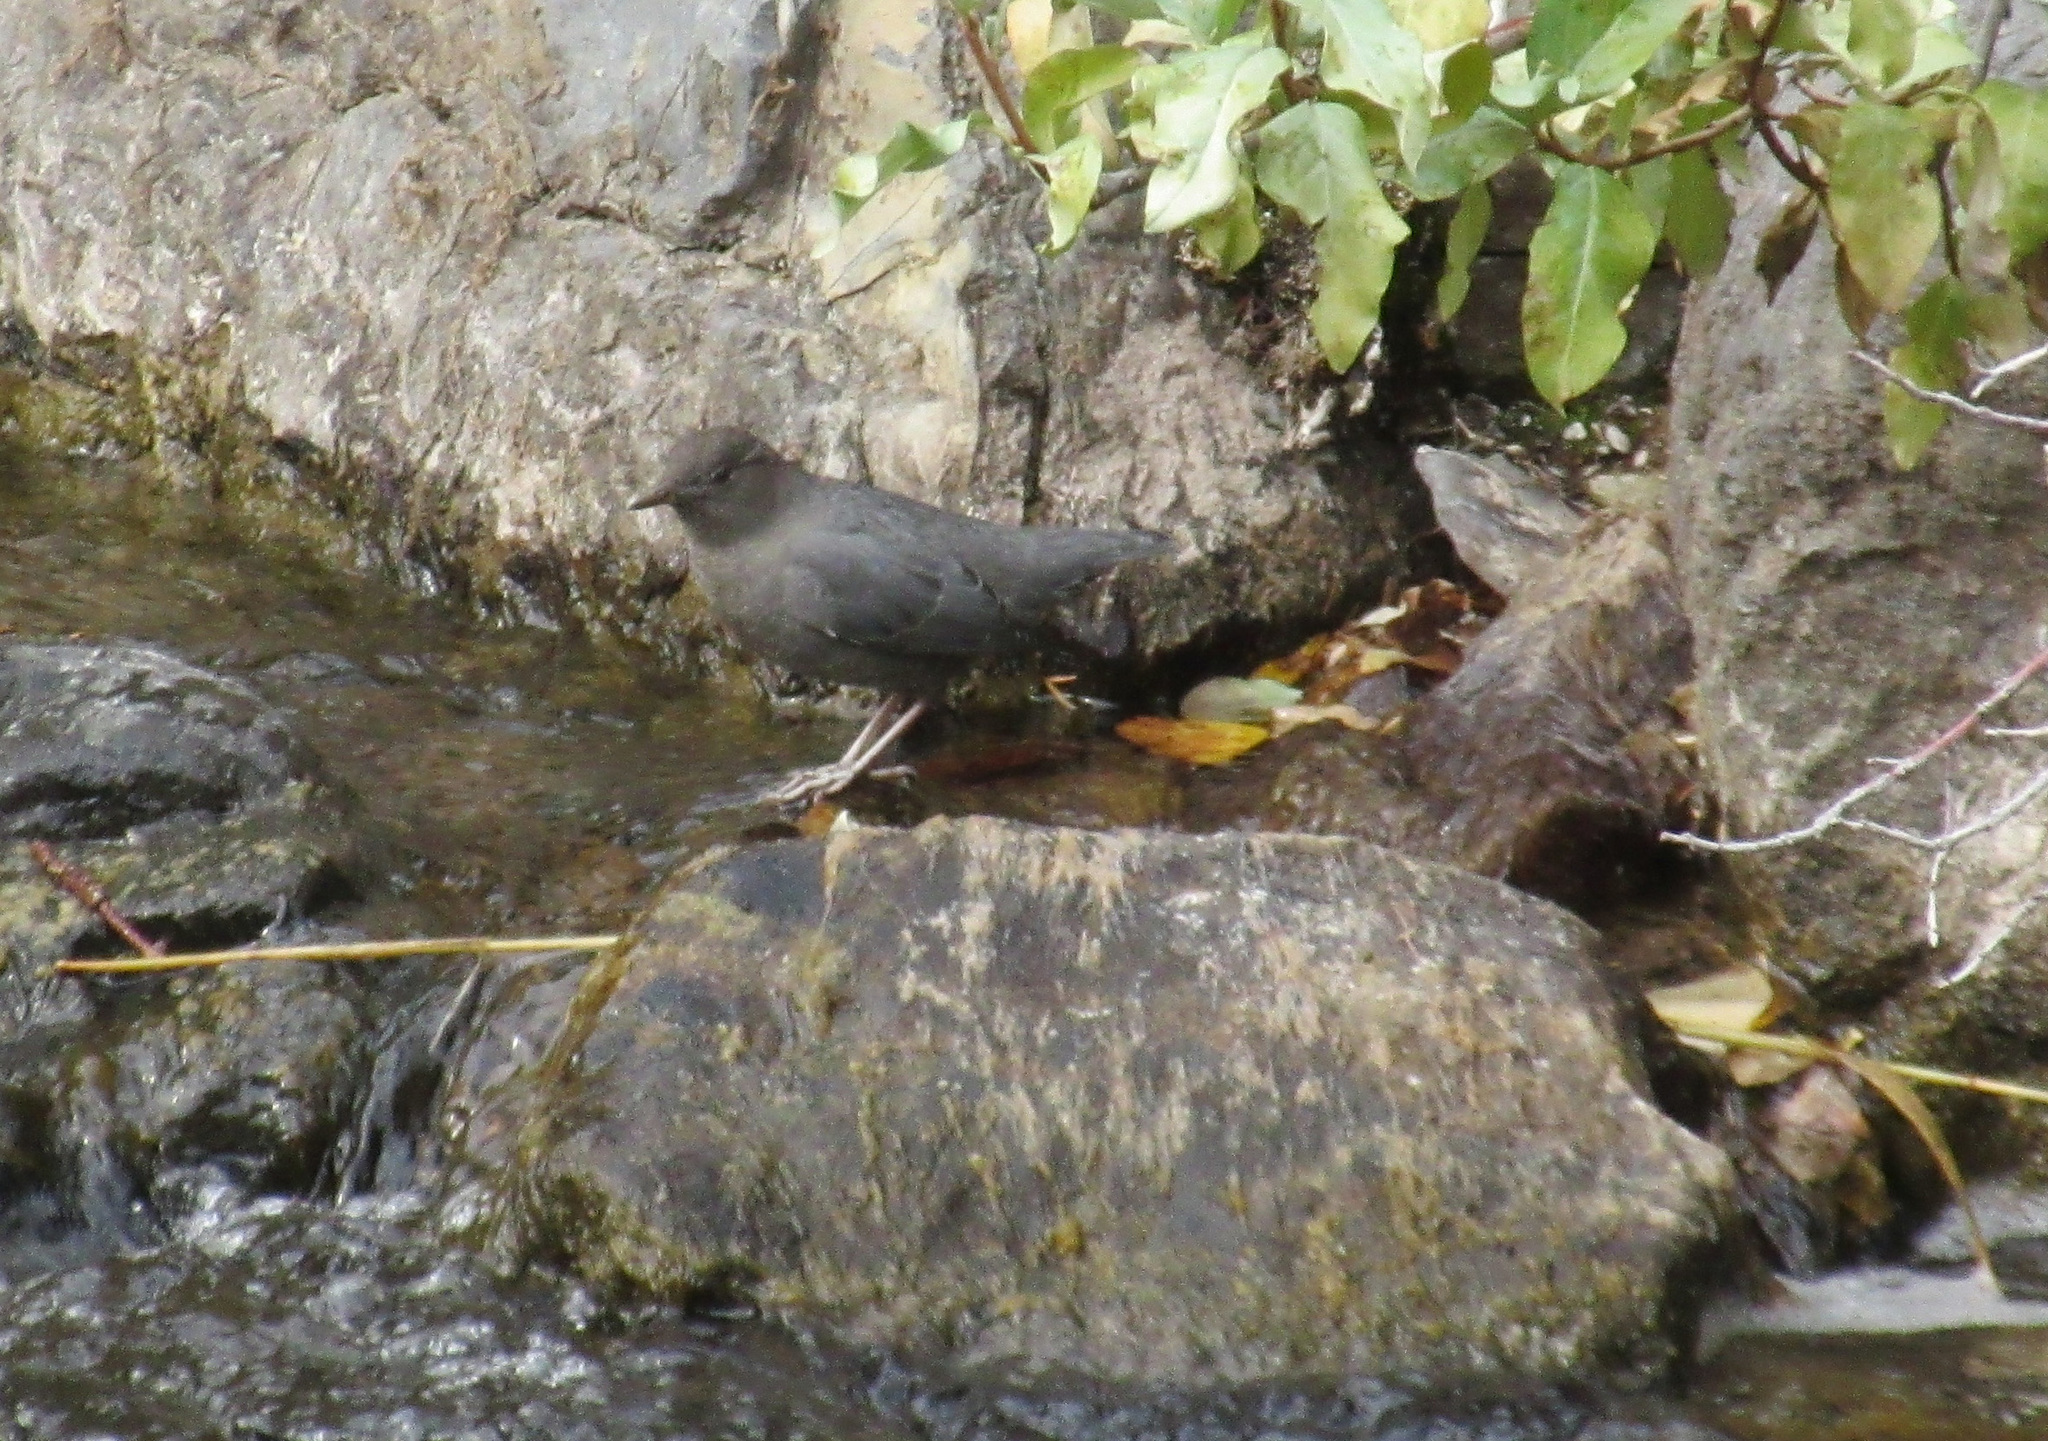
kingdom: Animalia
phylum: Chordata
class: Aves
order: Passeriformes
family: Cinclidae
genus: Cinclus
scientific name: Cinclus mexicanus
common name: American dipper
